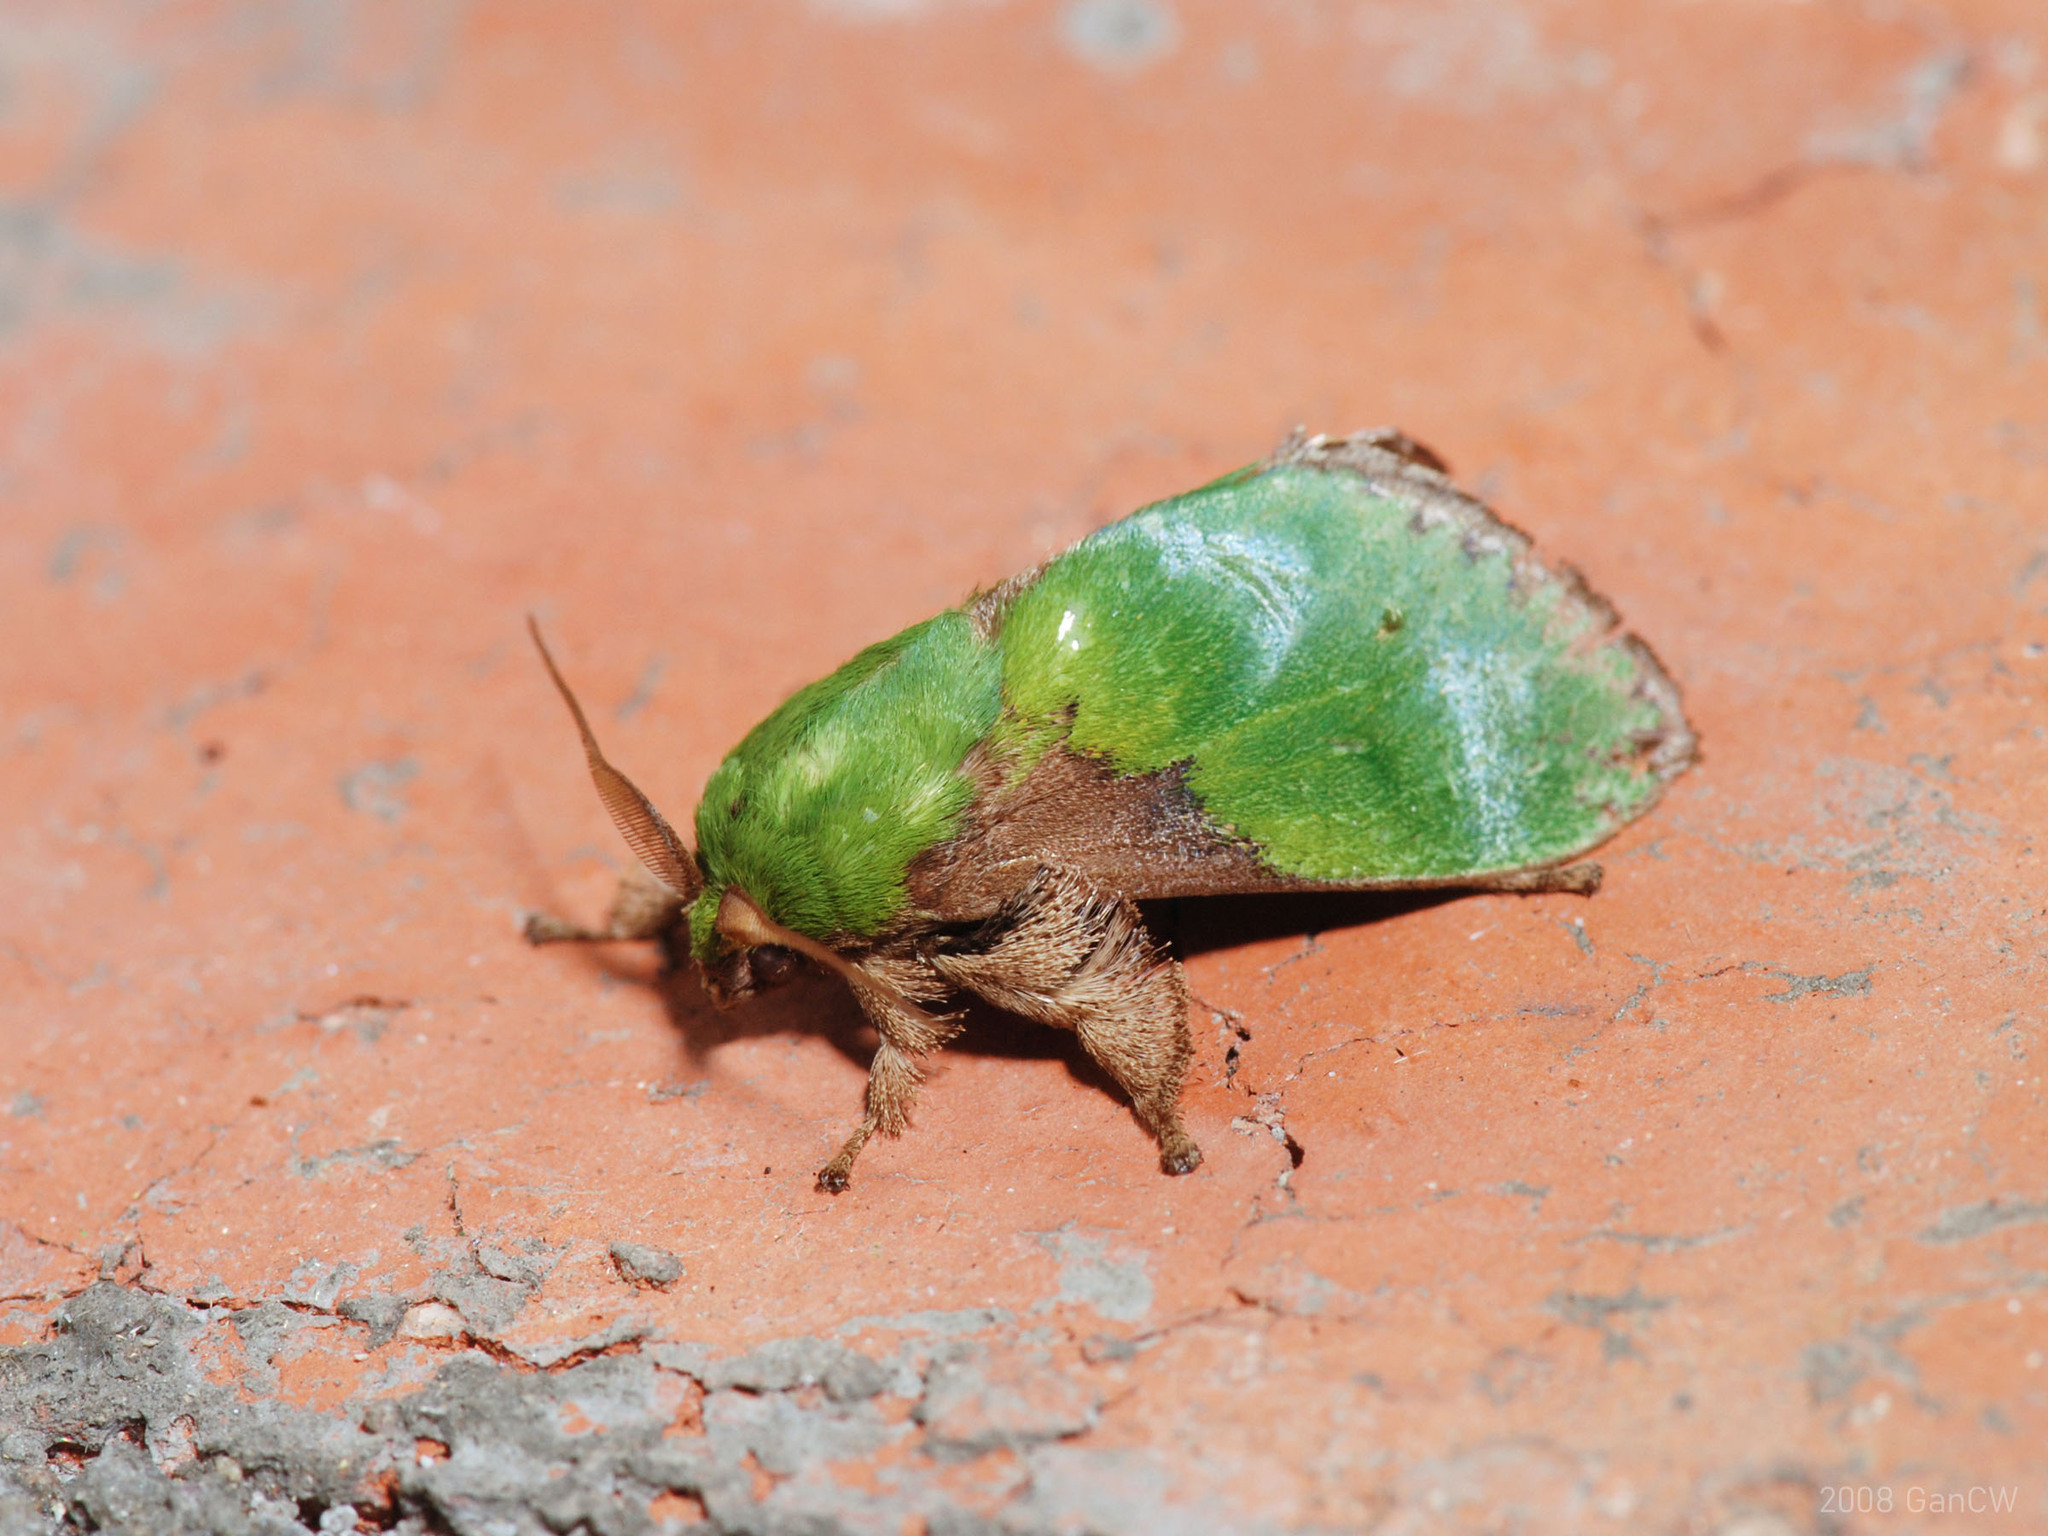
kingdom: Animalia
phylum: Arthropoda
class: Insecta
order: Lepidoptera
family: Limacodidae
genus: Canon
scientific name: Canon punica
